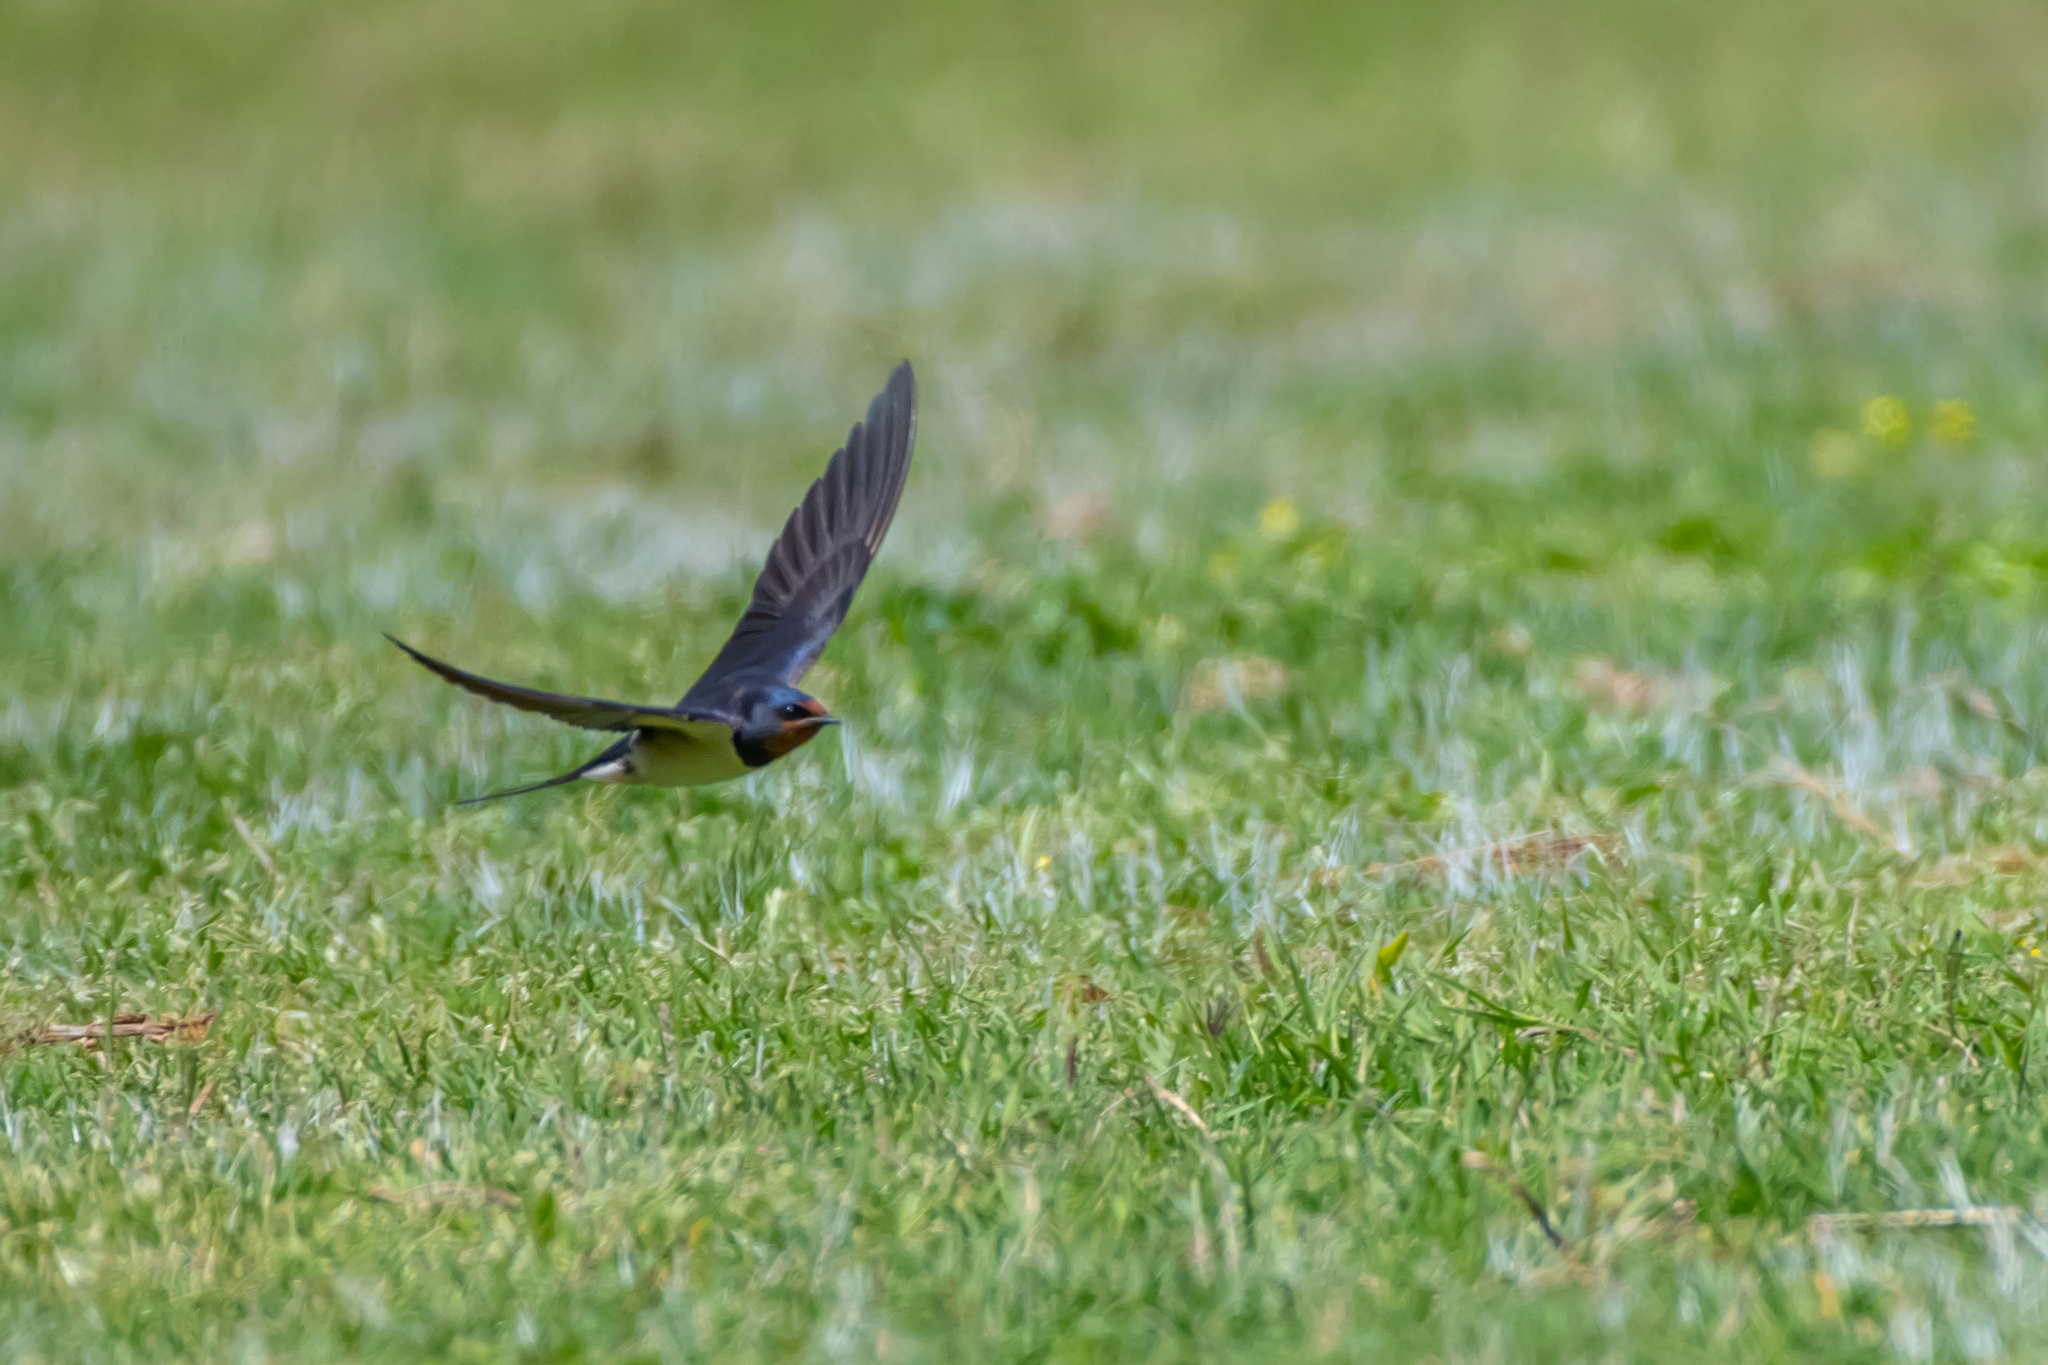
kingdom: Animalia
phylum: Chordata
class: Aves
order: Passeriformes
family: Hirundinidae
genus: Hirundo
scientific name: Hirundo rustica
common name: Barn swallow
